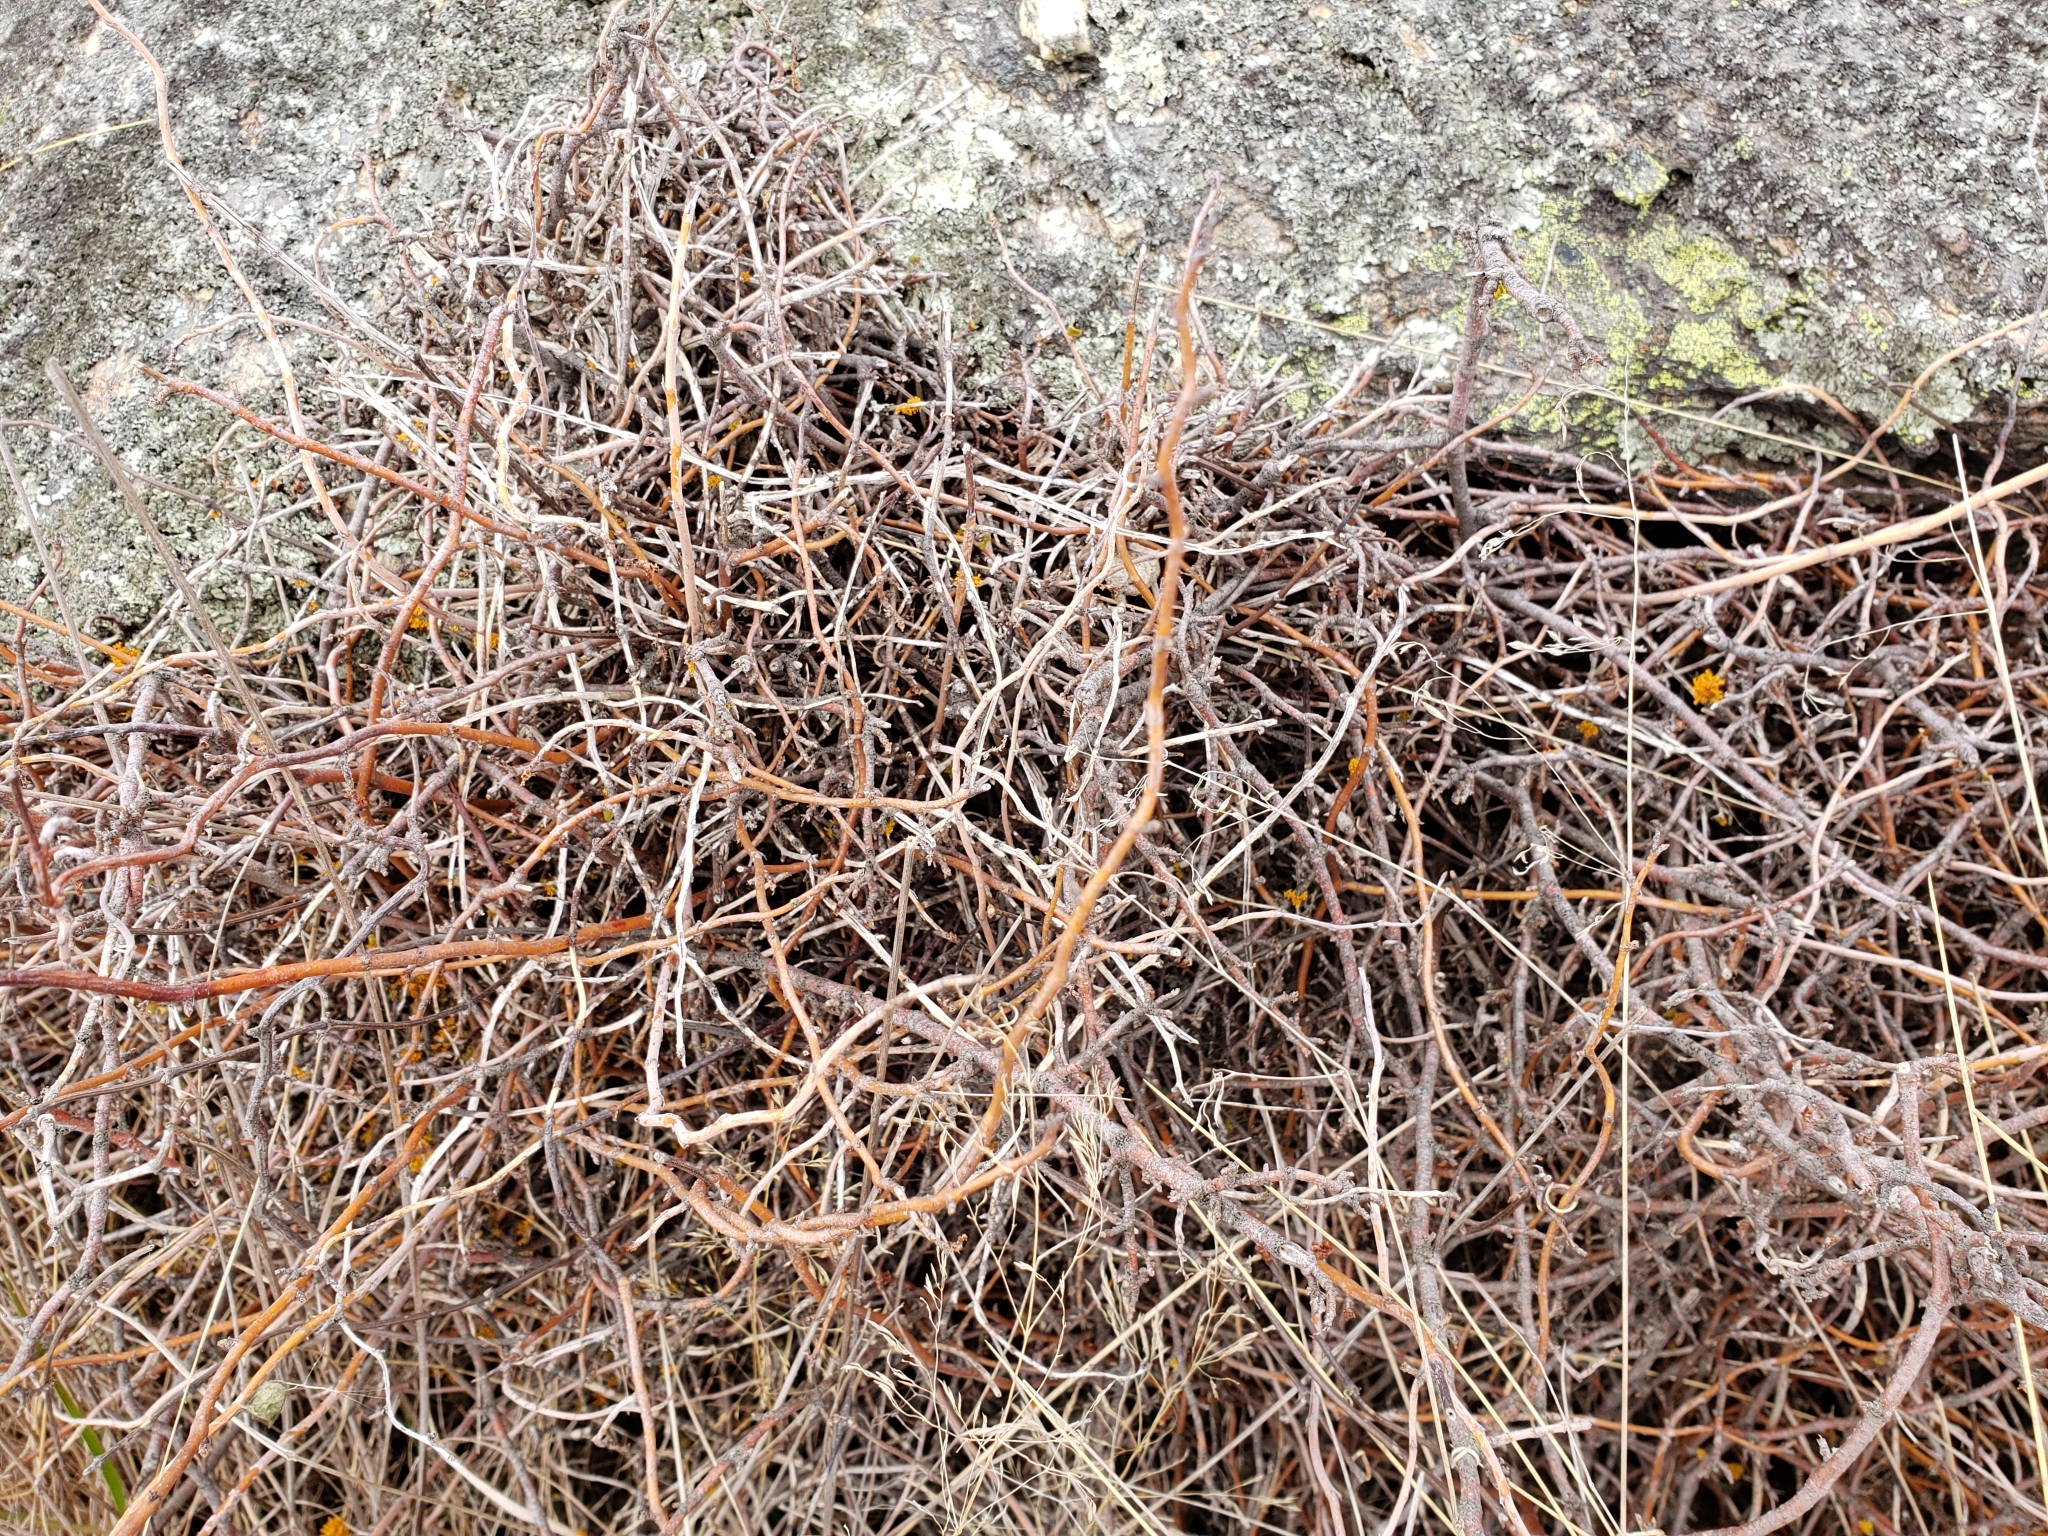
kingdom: Plantae
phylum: Tracheophyta
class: Magnoliopsida
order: Caryophyllales
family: Polygonaceae
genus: Muehlenbeckia
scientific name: Muehlenbeckia complexa
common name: Wireplant
